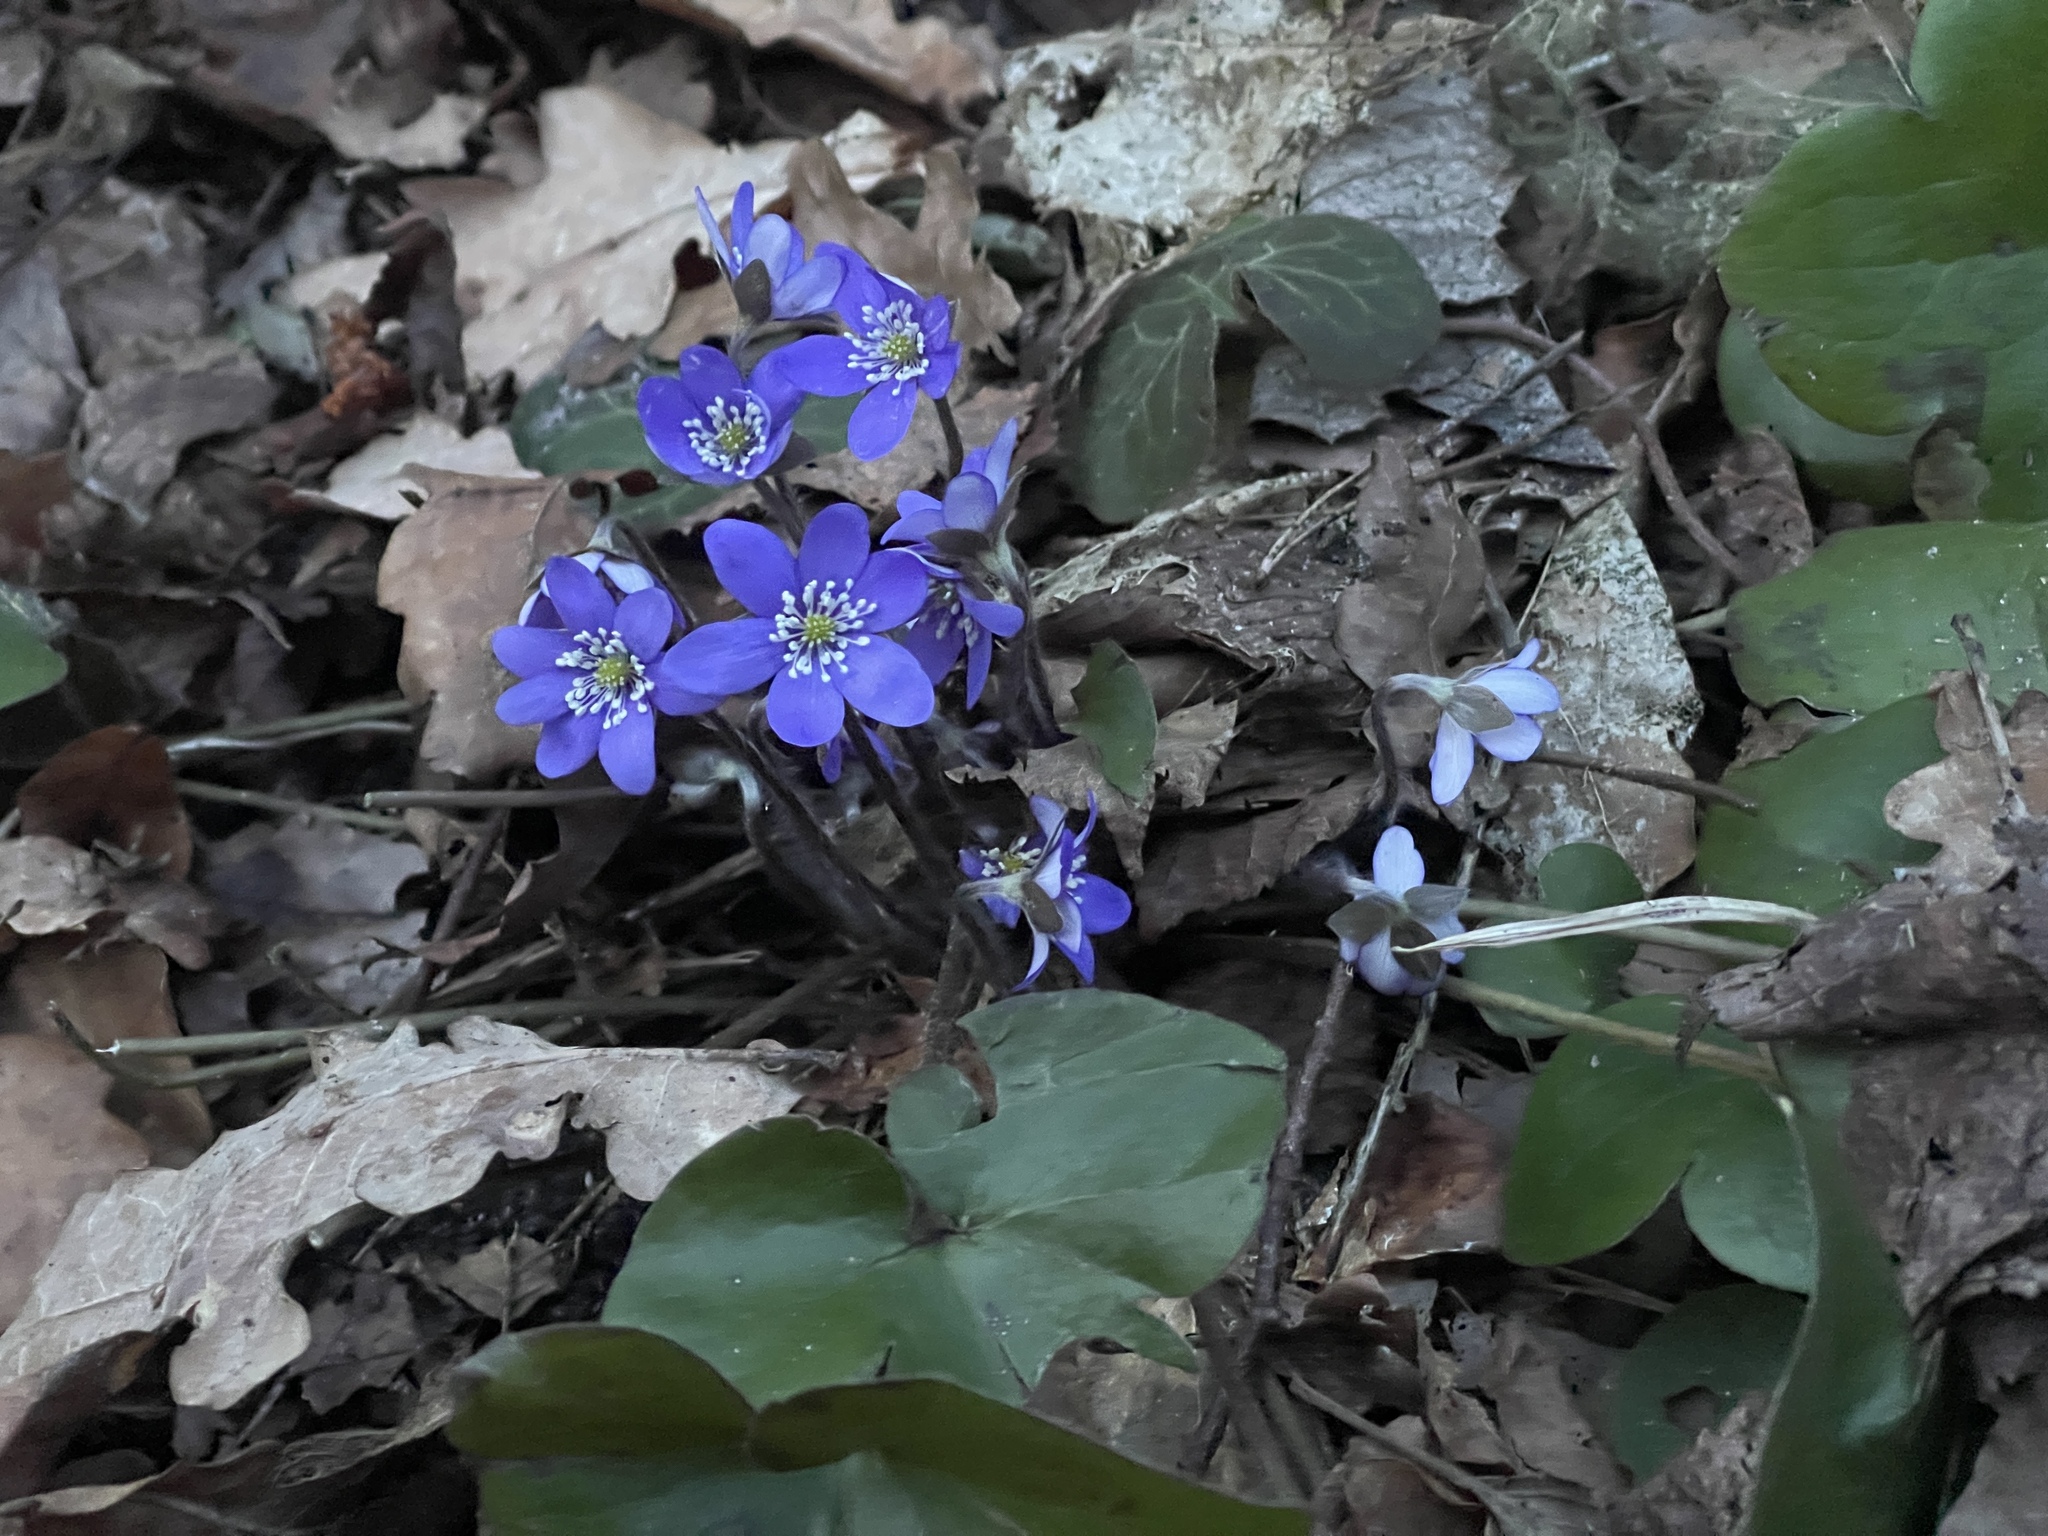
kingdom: Plantae
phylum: Tracheophyta
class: Magnoliopsida
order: Ranunculales
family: Ranunculaceae
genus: Hepatica
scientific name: Hepatica nobilis
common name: Liverleaf
